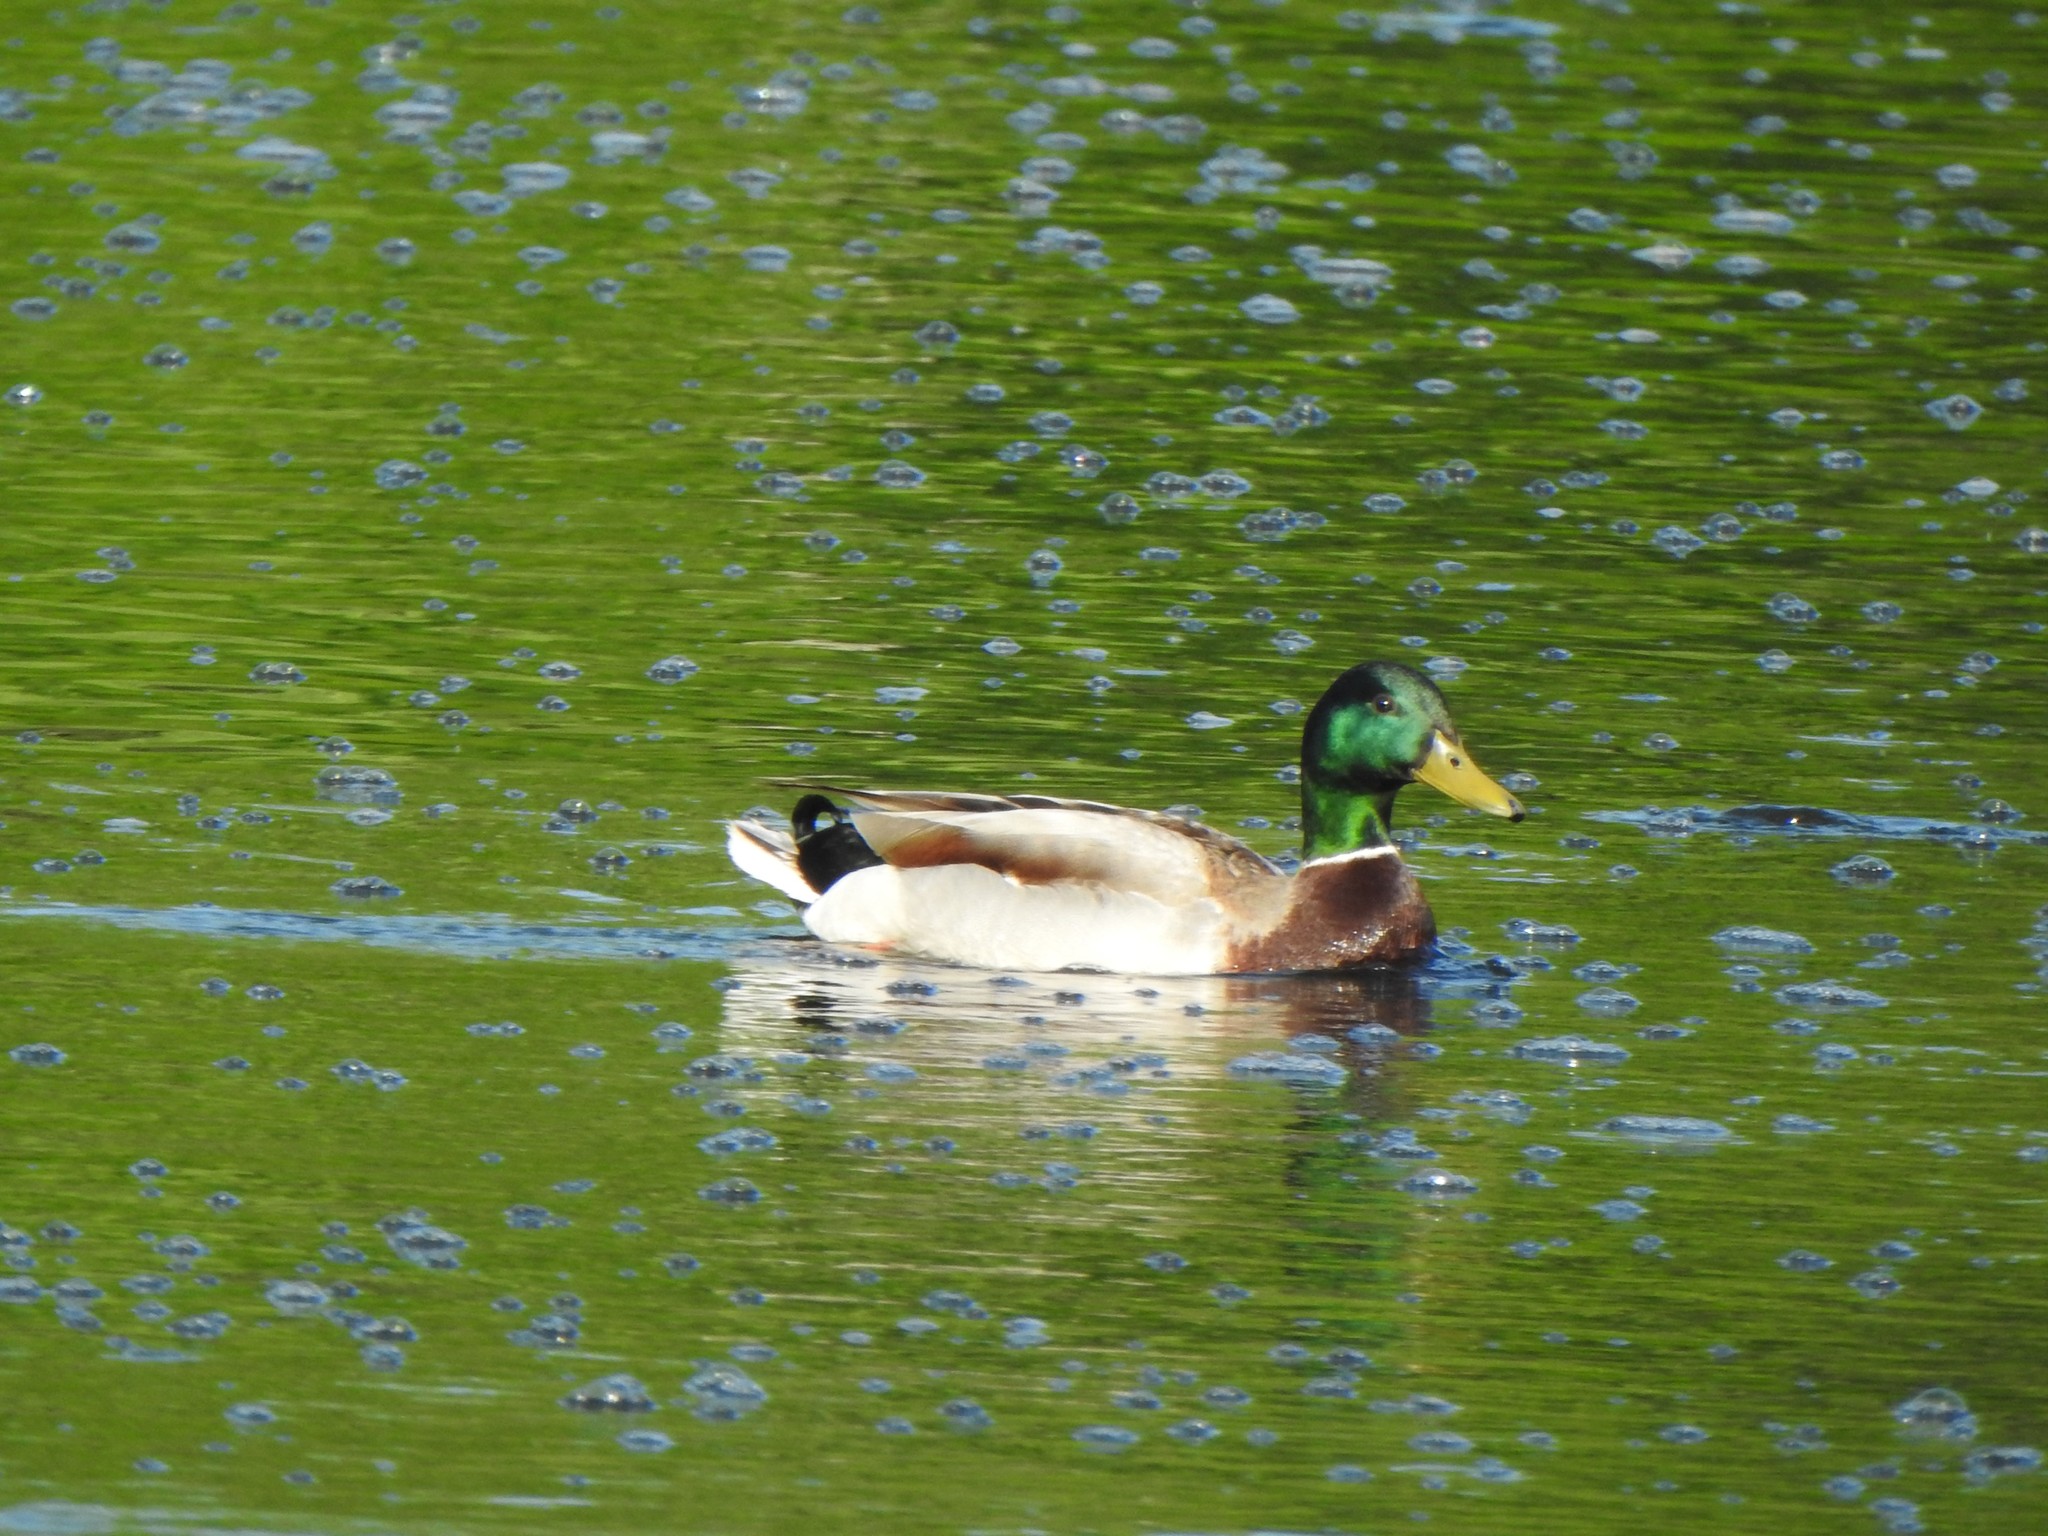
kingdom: Animalia
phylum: Chordata
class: Aves
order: Anseriformes
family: Anatidae
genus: Anas
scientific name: Anas platyrhynchos
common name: Mallard
